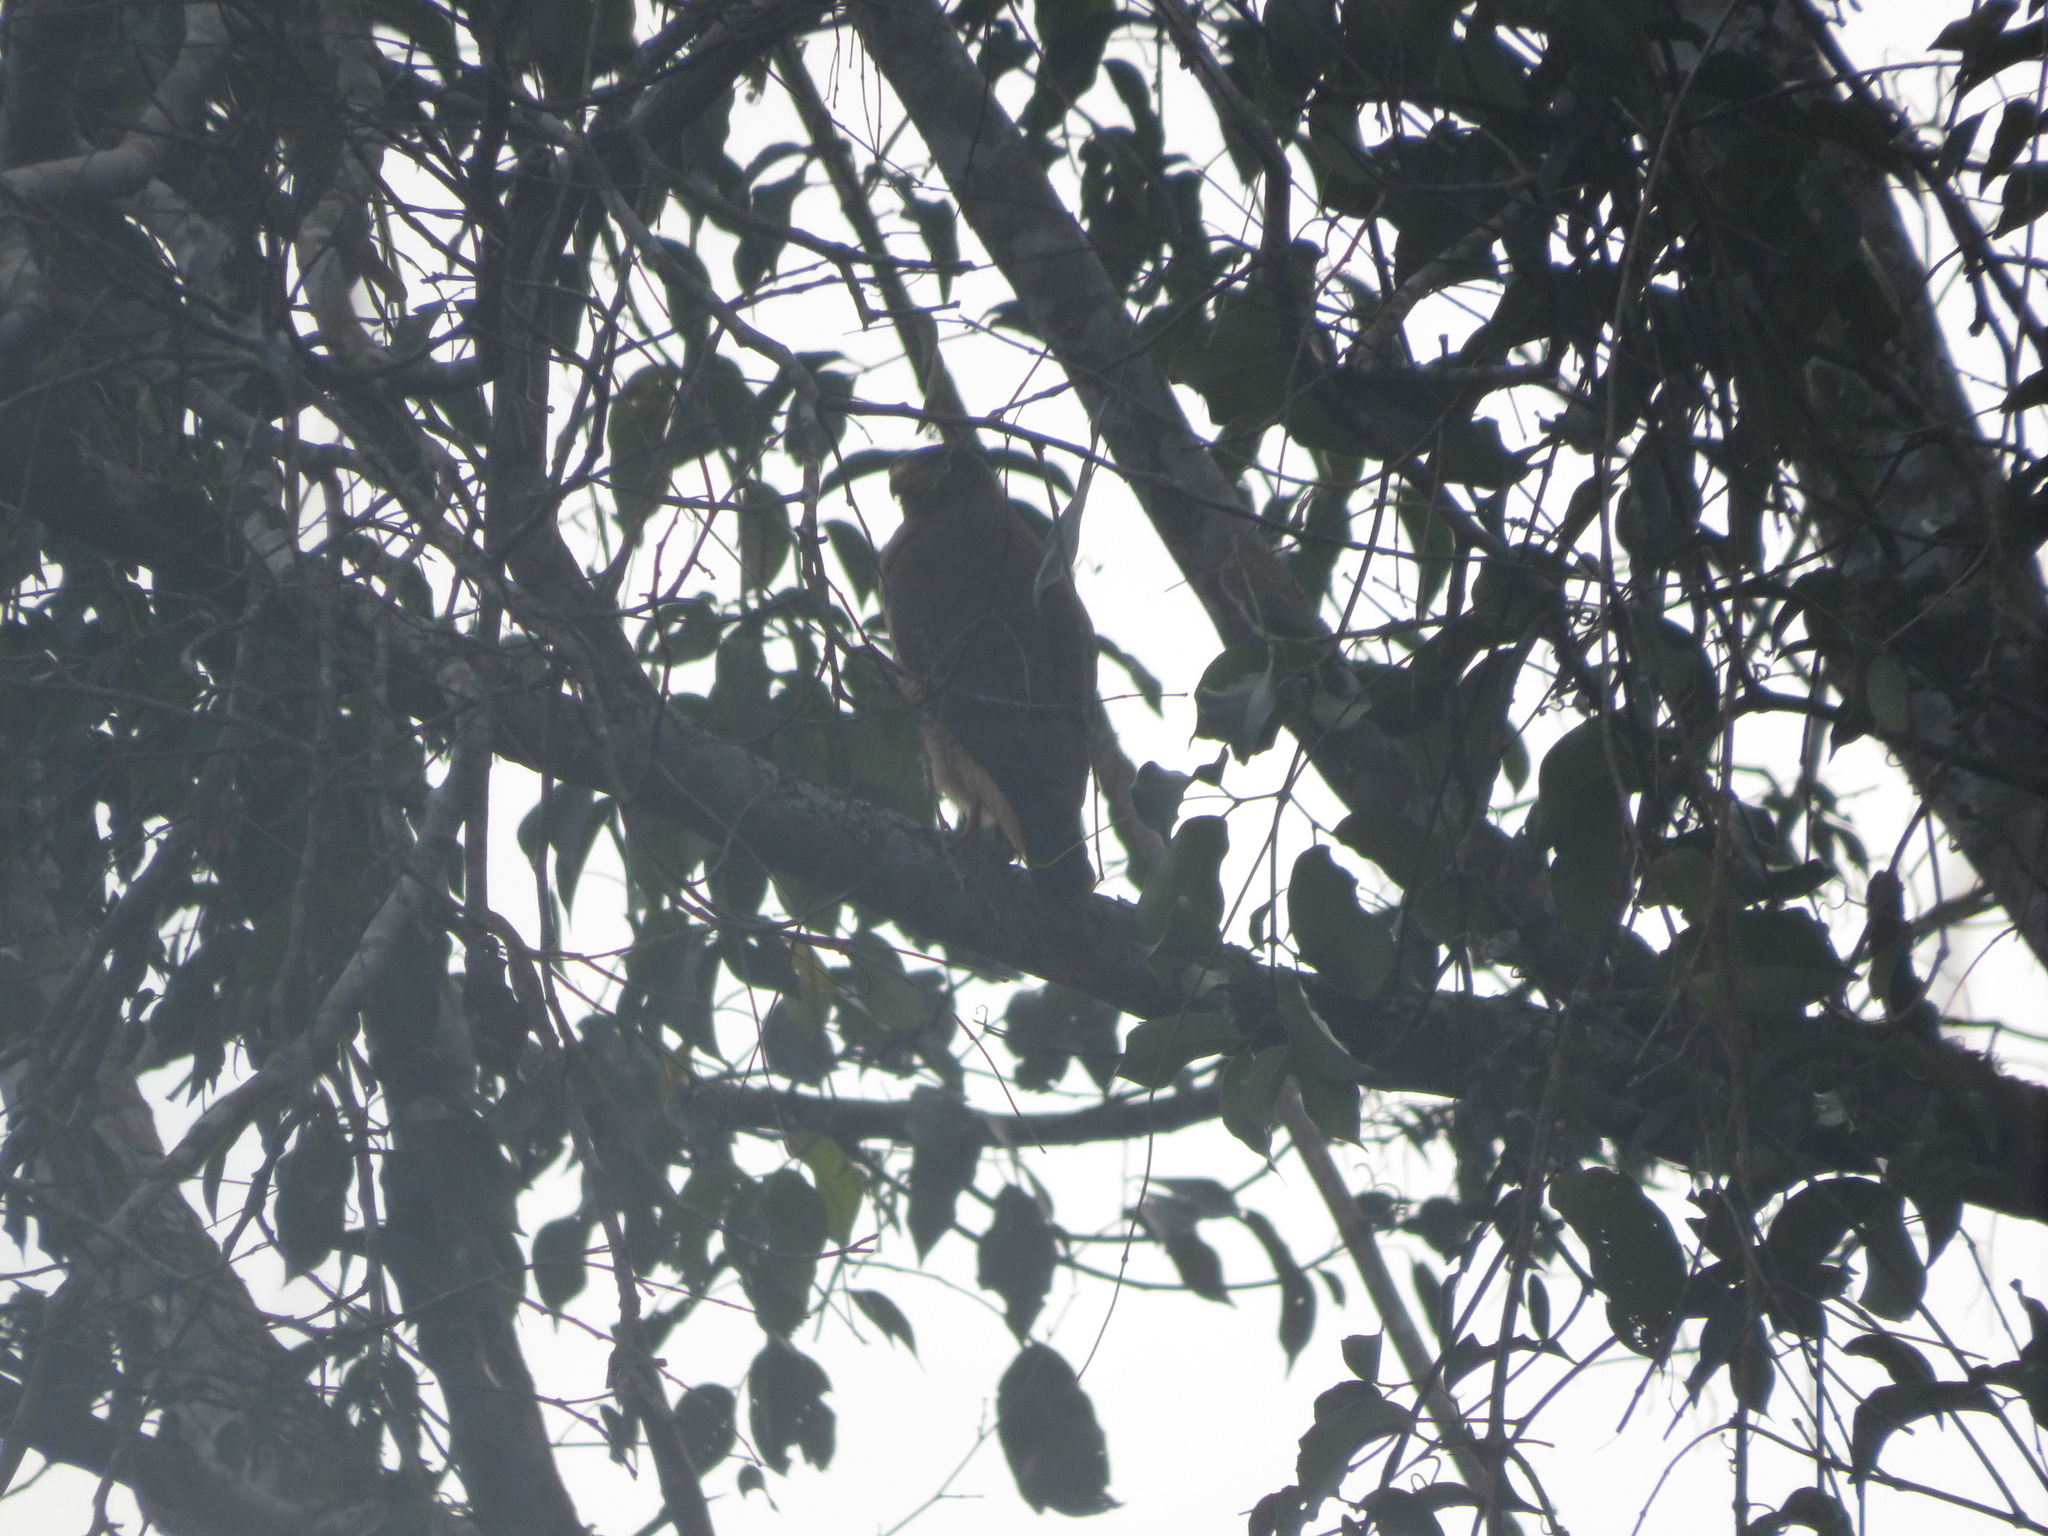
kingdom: Animalia
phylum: Chordata
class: Aves
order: Accipitriformes
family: Accipitridae
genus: Rupornis
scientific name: Rupornis magnirostris
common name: Roadside hawk
